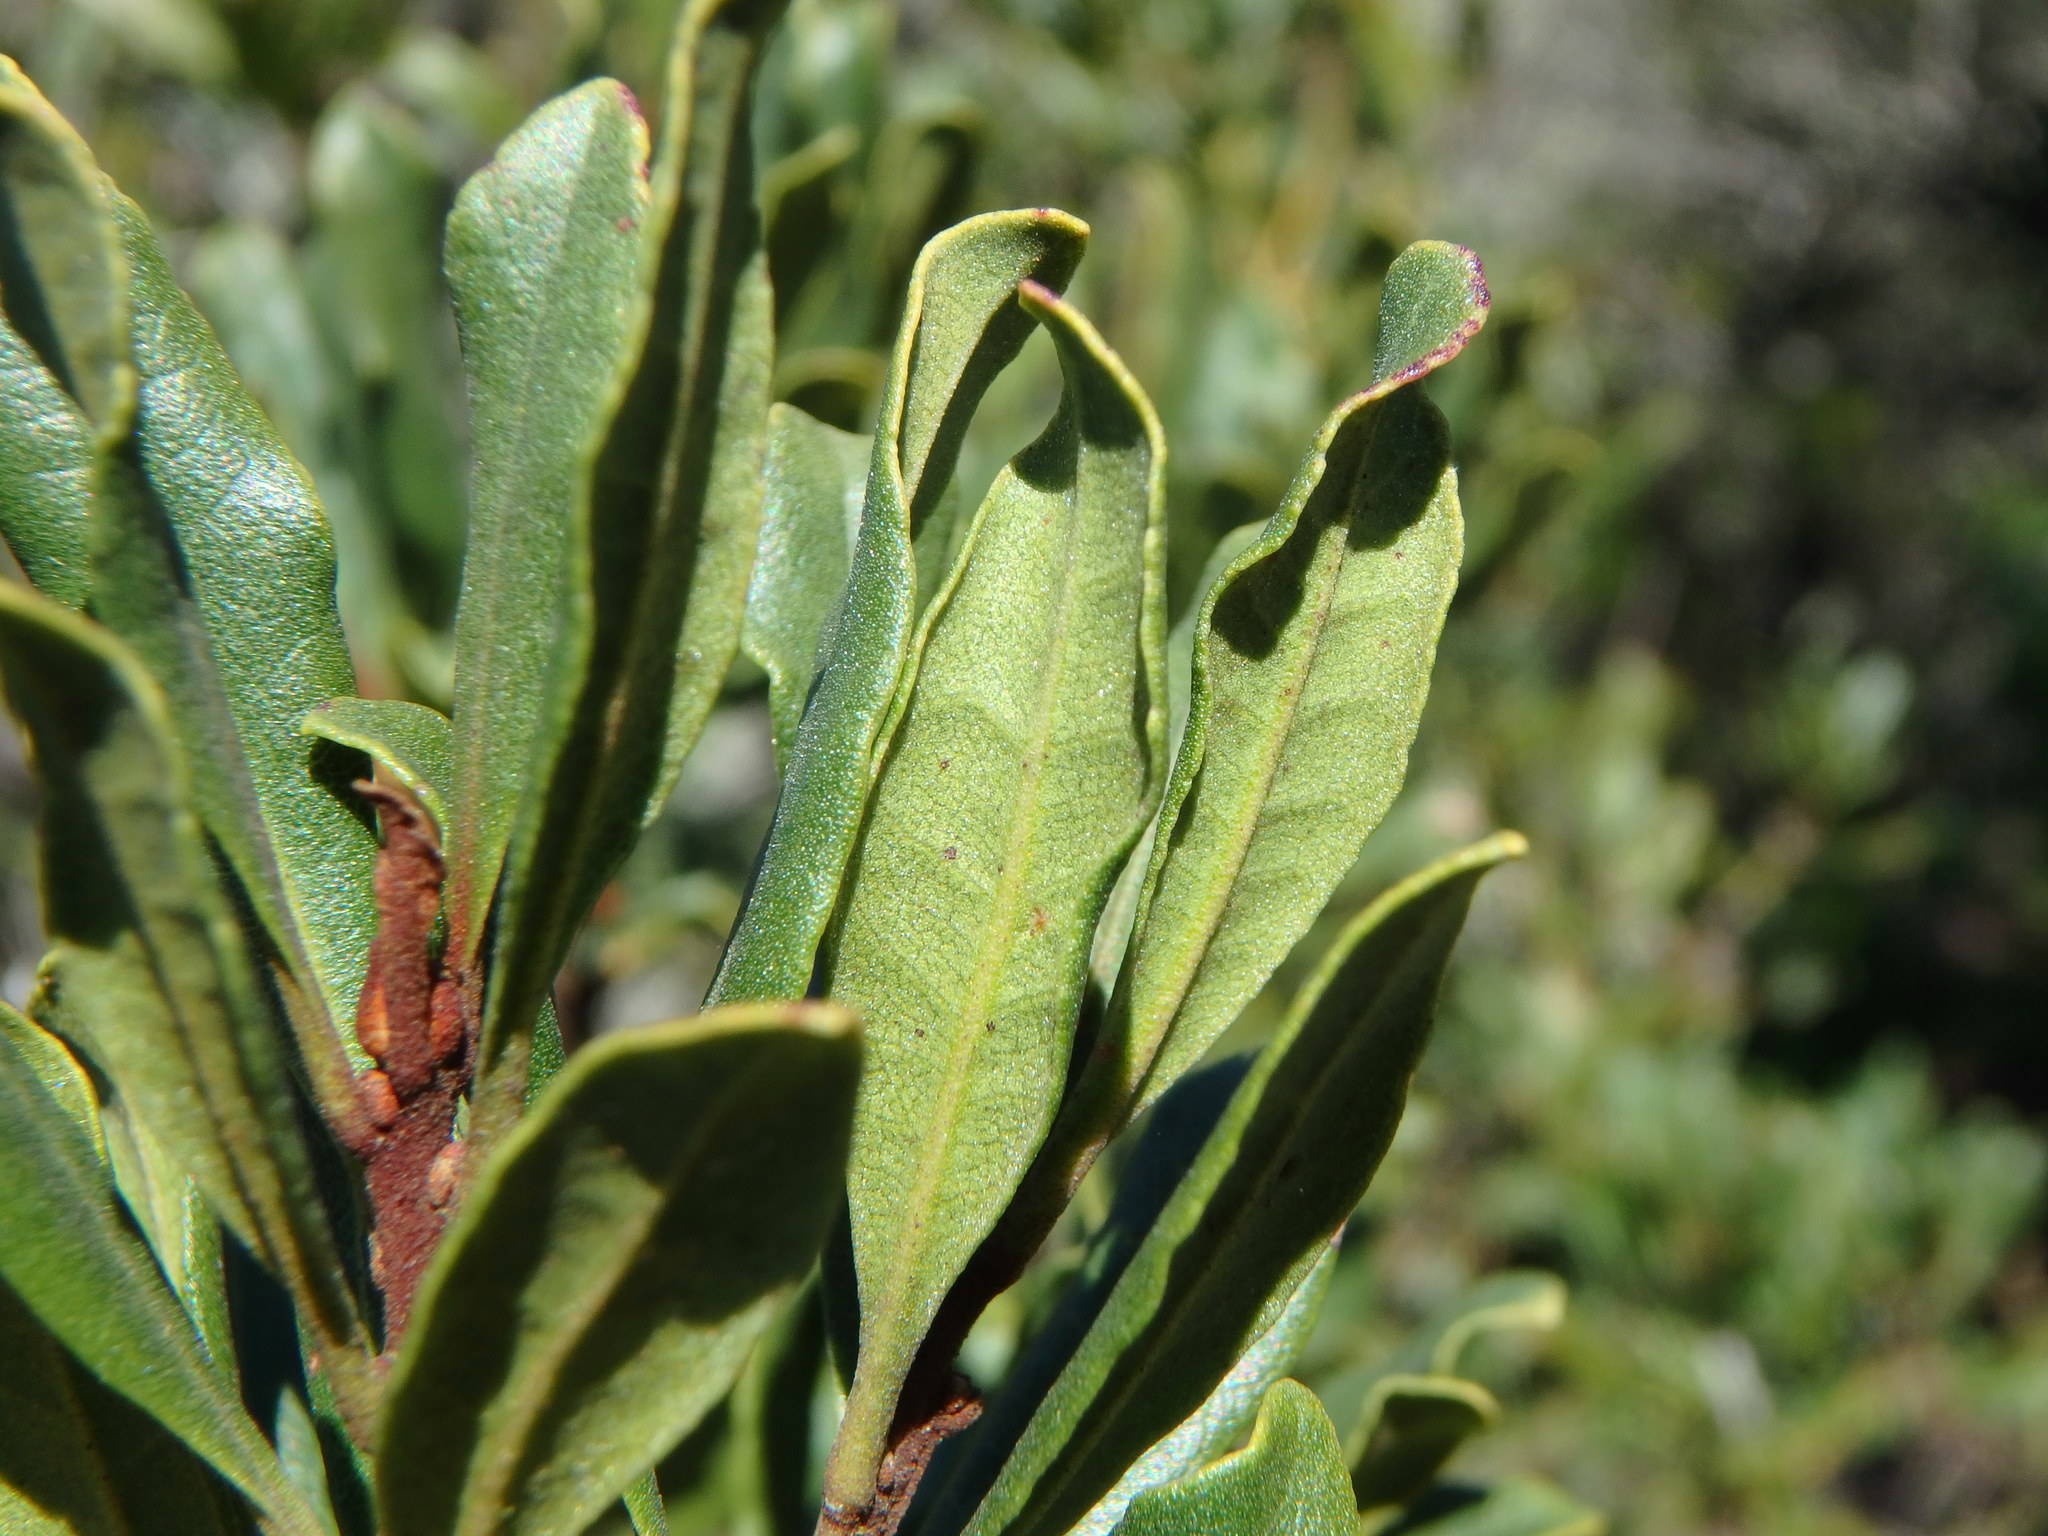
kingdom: Plantae
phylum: Tracheophyta
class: Magnoliopsida
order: Fagales
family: Myricaceae
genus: Morella
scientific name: Morella faya
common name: Firetree
